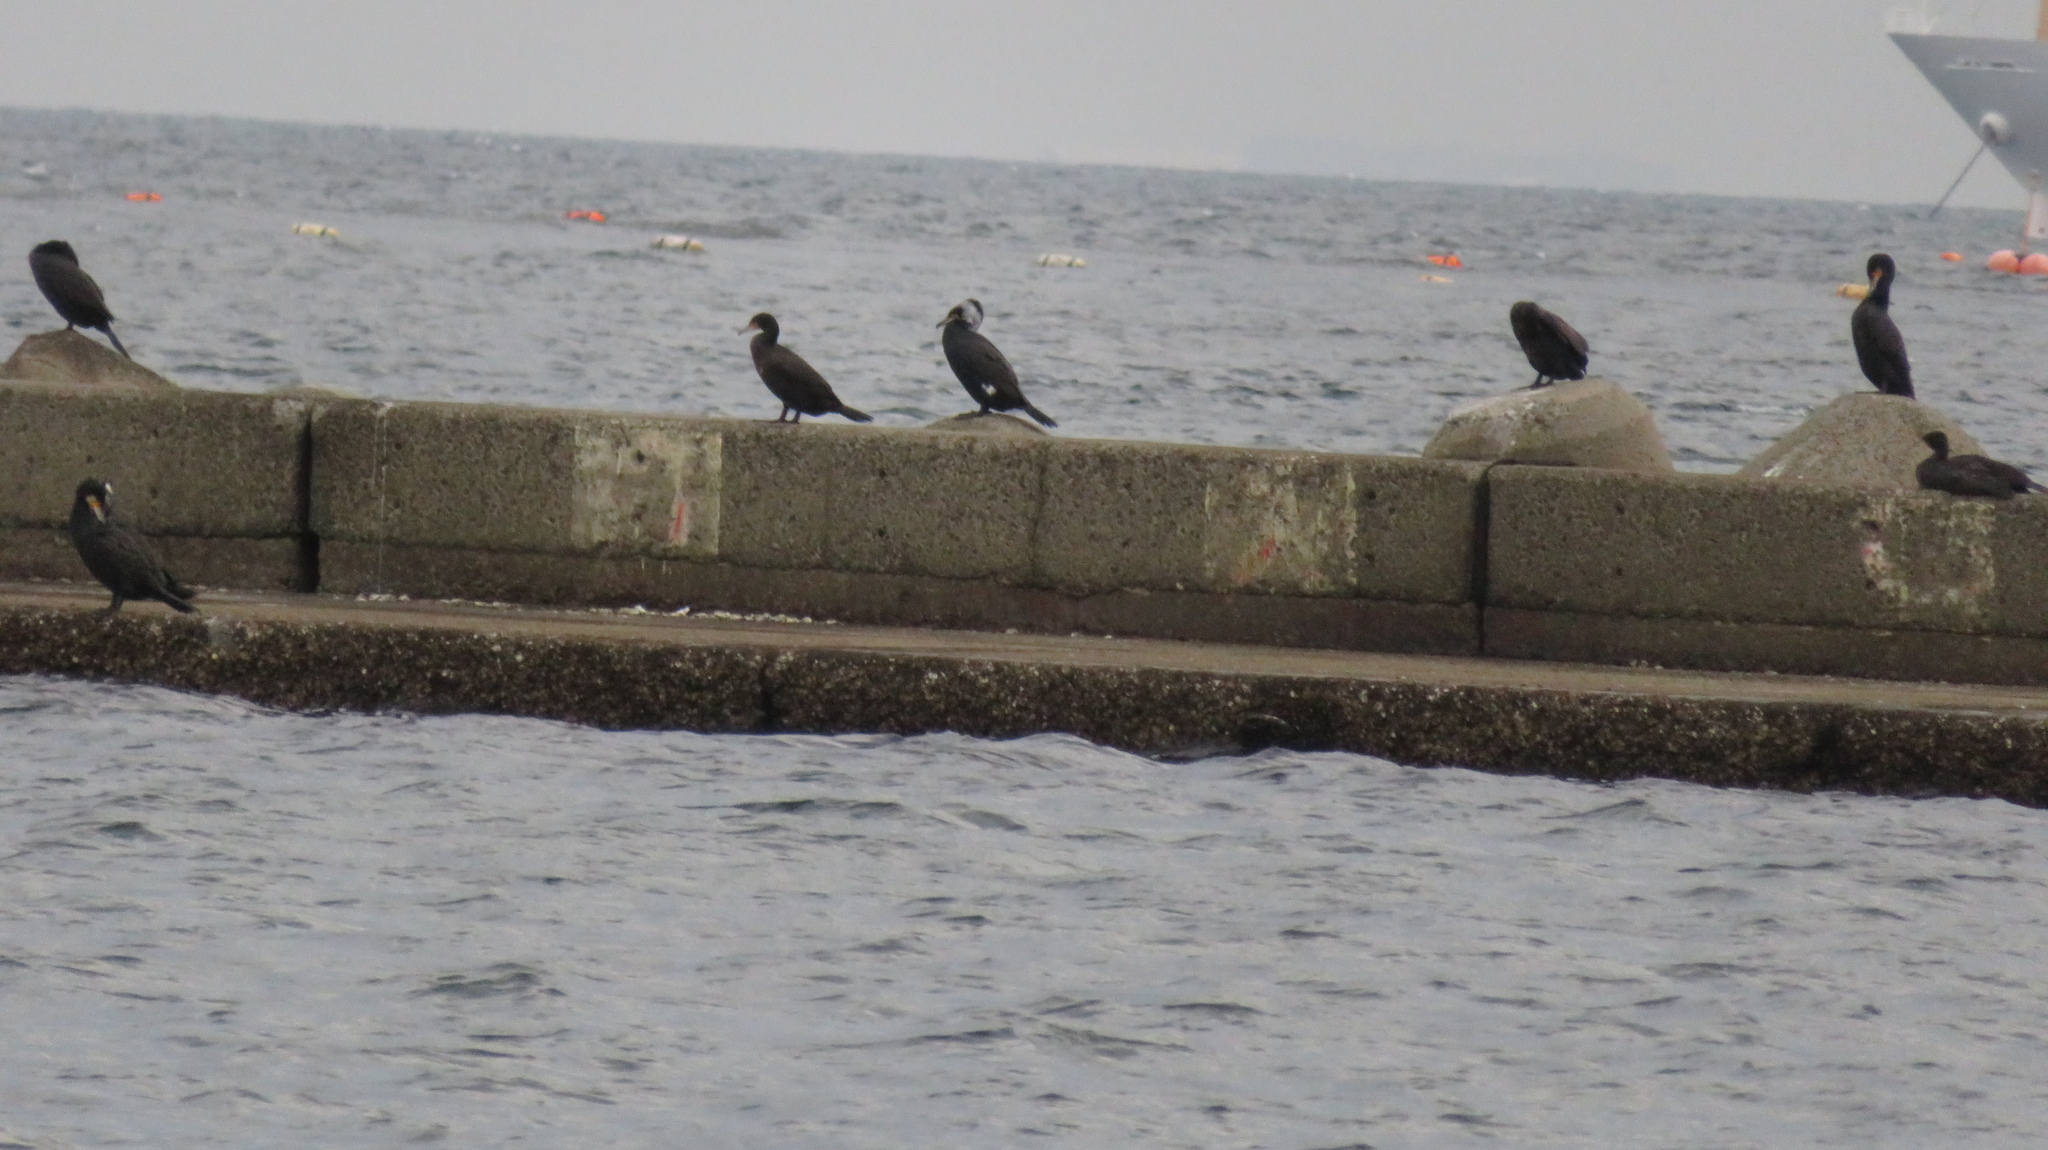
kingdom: Animalia
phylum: Chordata
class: Aves
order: Suliformes
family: Phalacrocoracidae
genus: Phalacrocorax
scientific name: Phalacrocorax carbo
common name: Great cormorant
